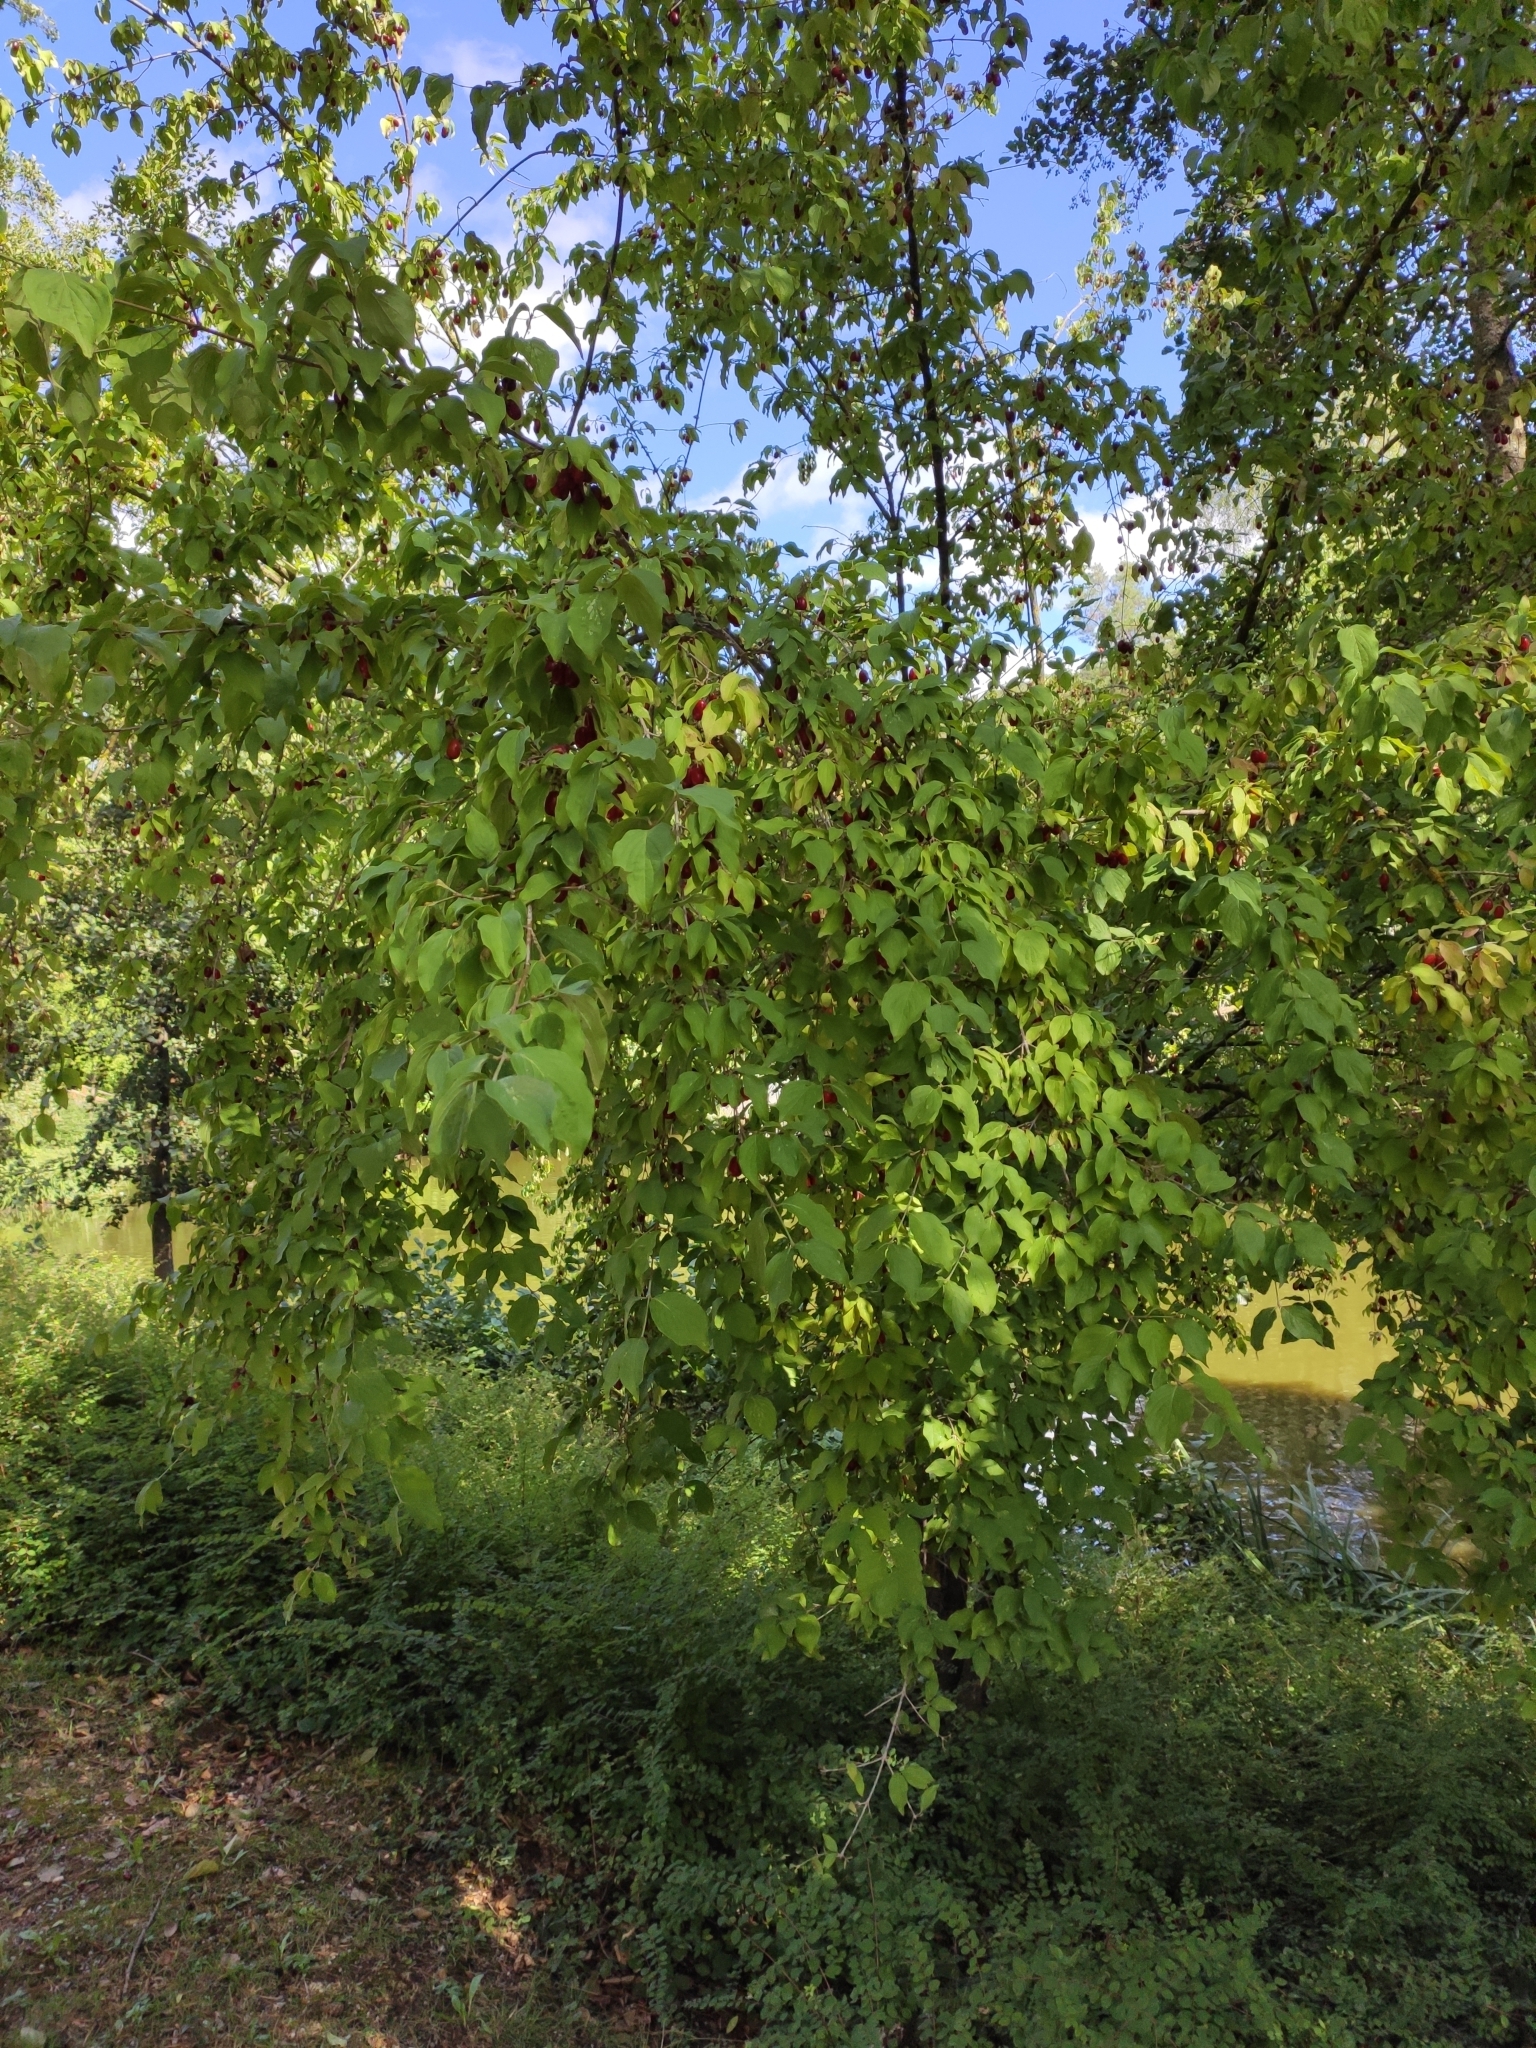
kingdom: Plantae
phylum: Tracheophyta
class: Magnoliopsida
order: Cornales
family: Cornaceae
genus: Cornus
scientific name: Cornus mas
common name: Cornelian-cherry
